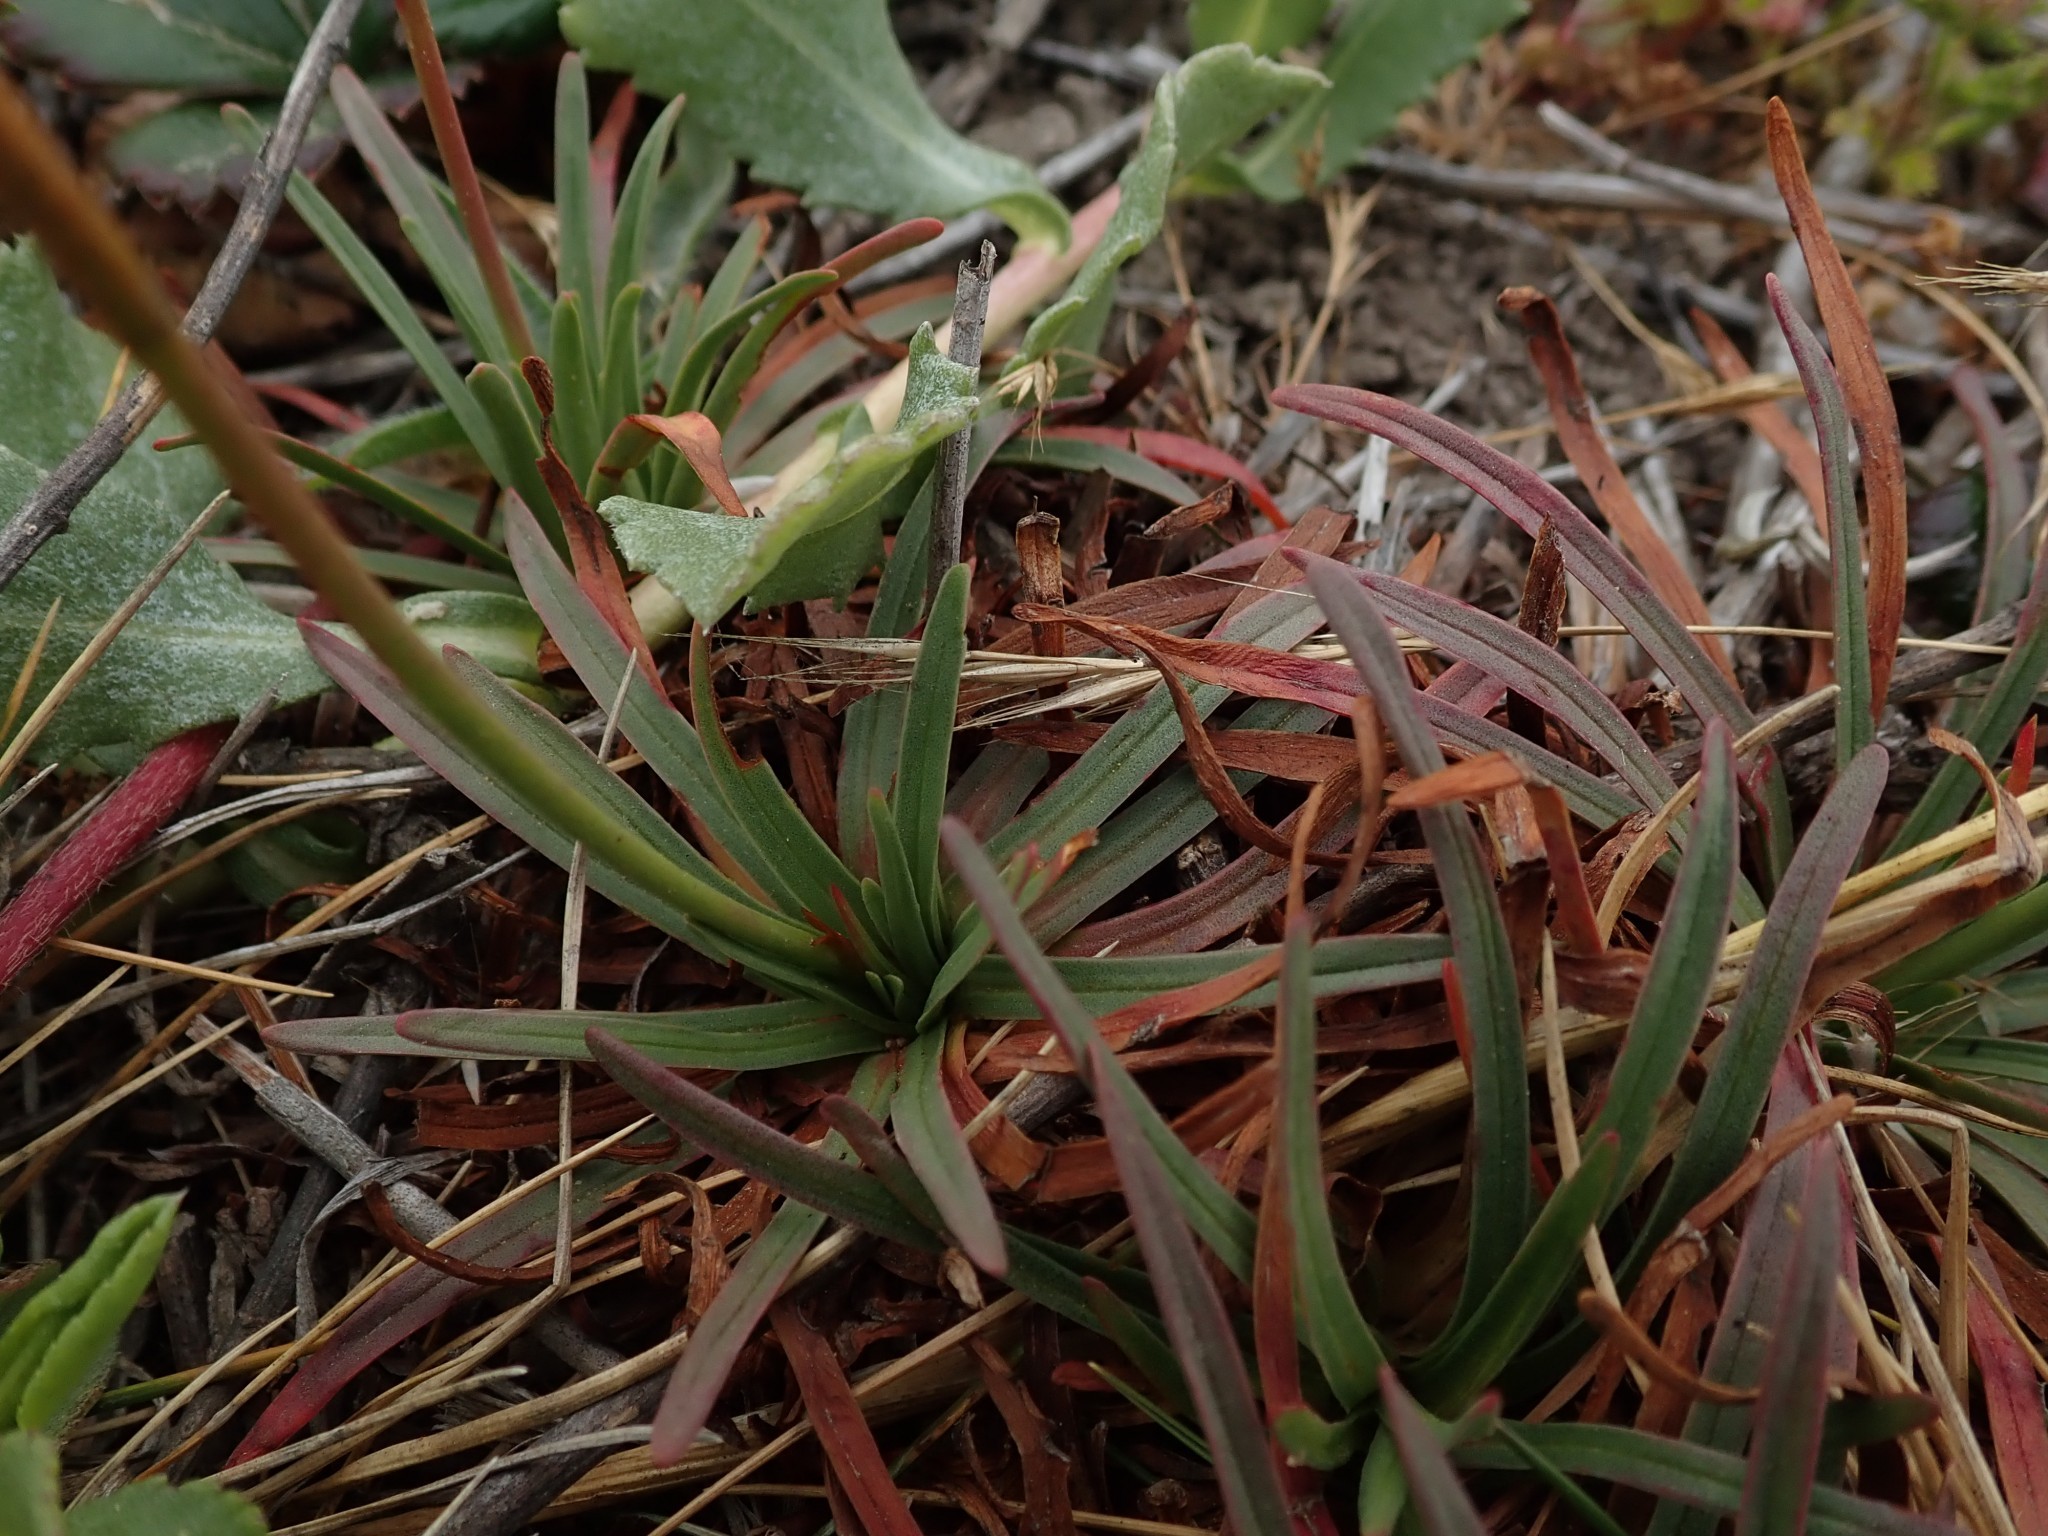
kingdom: Plantae
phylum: Tracheophyta
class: Magnoliopsida
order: Caryophyllales
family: Plumbaginaceae
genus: Armeria
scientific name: Armeria maritima
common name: Thrift
